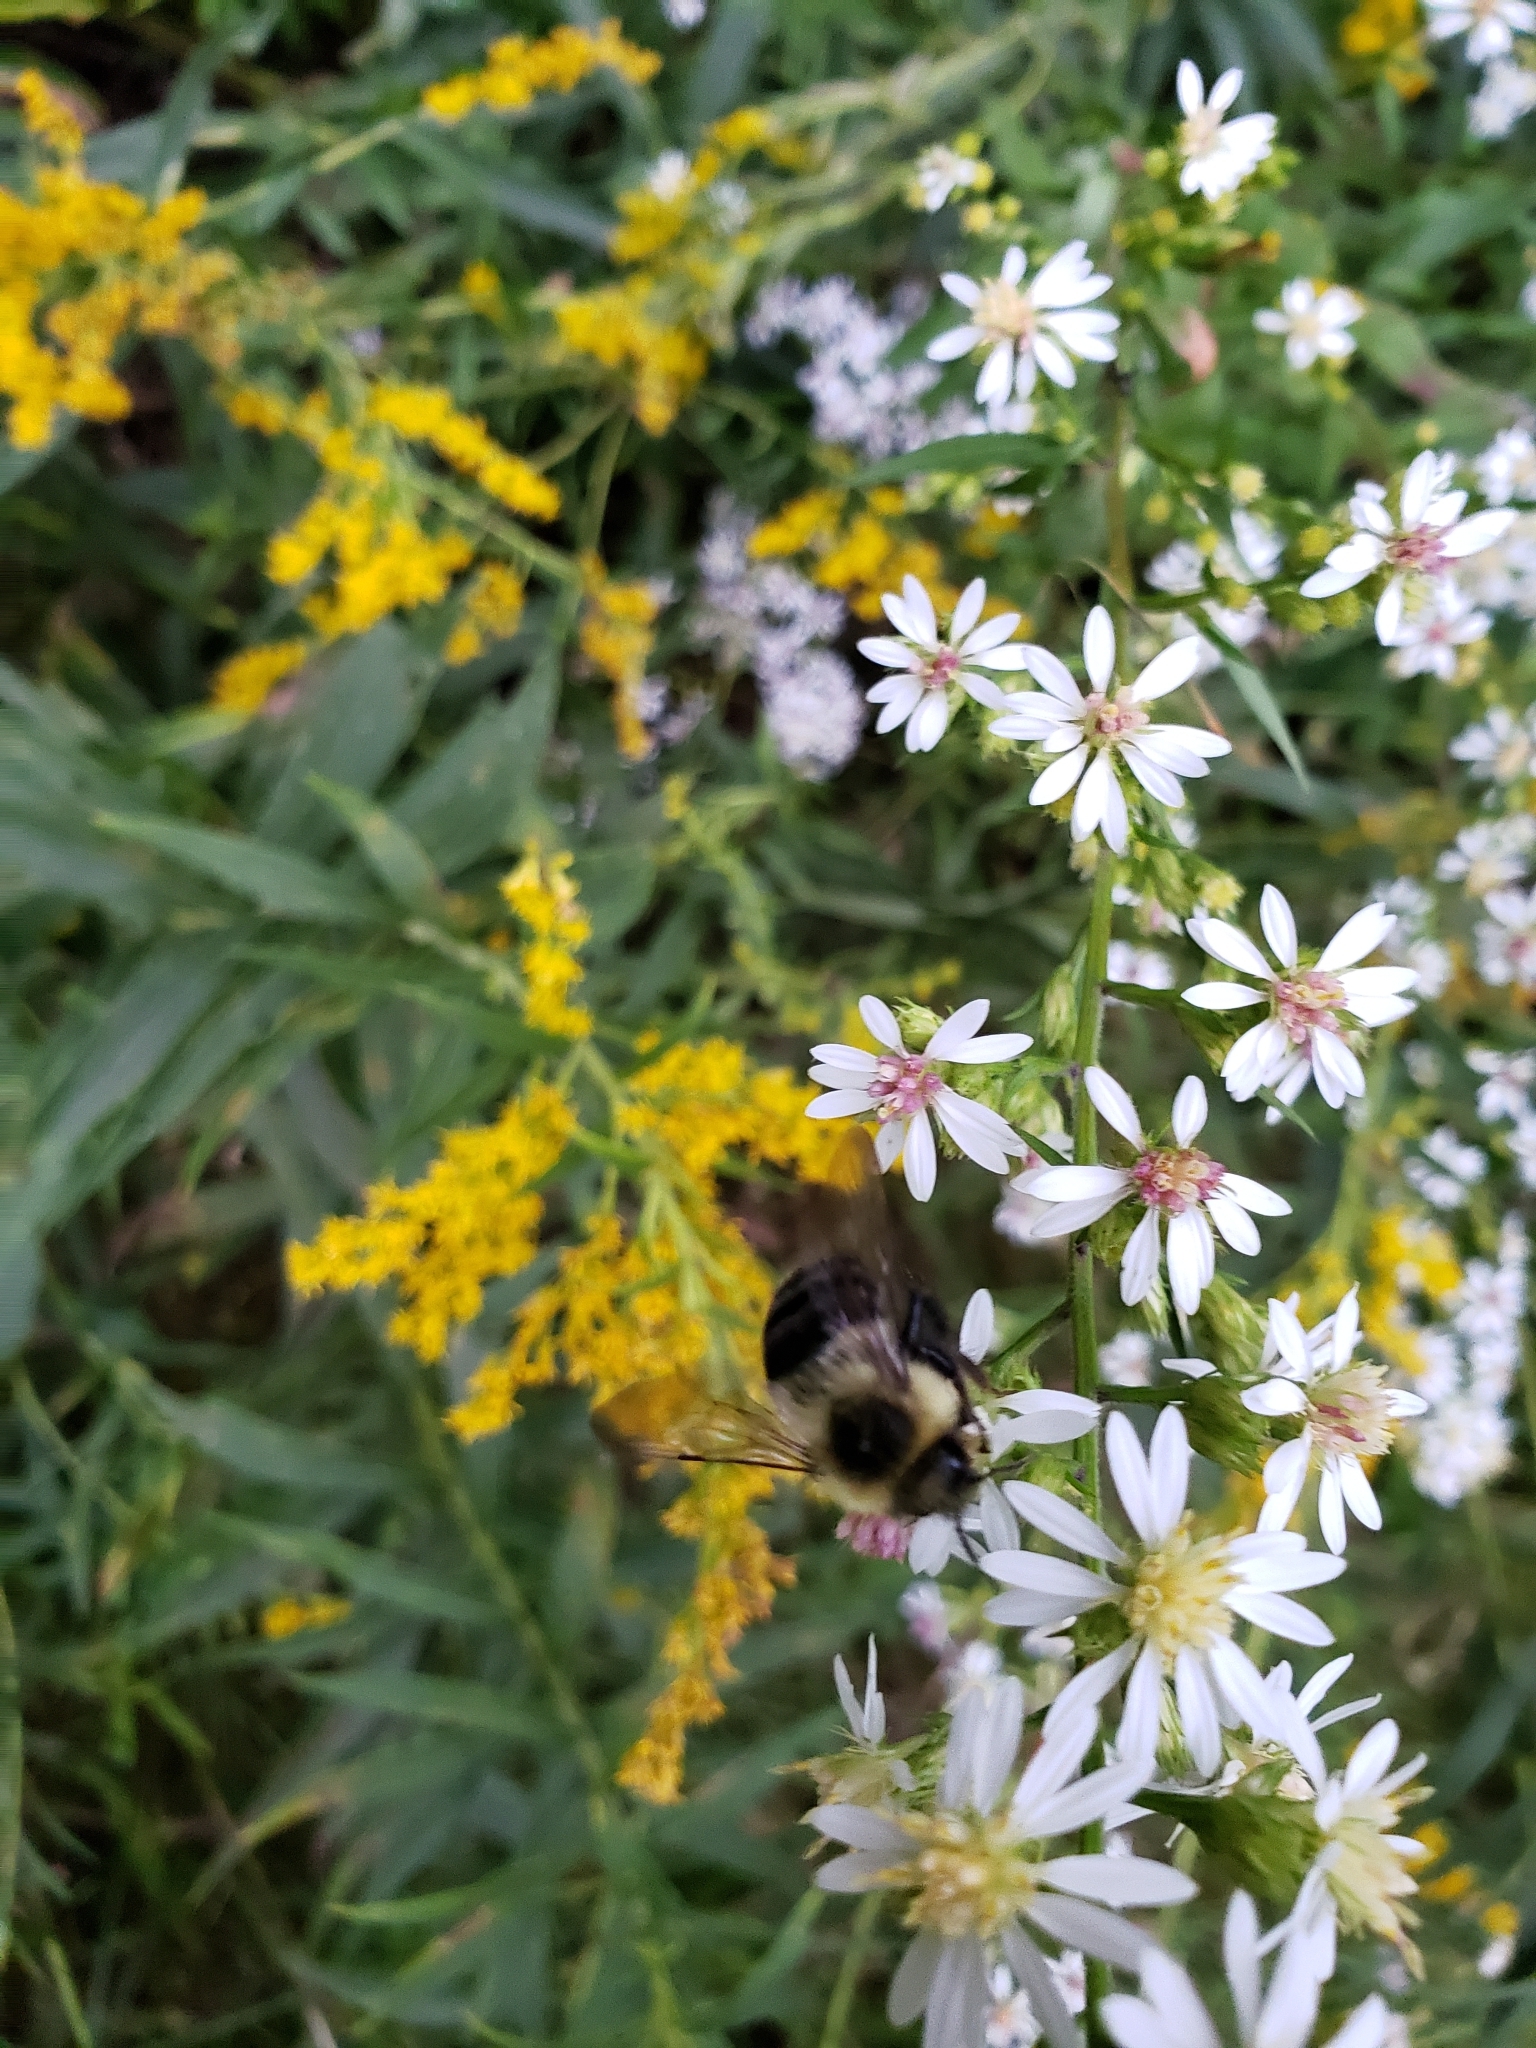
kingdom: Animalia
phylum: Arthropoda
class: Insecta
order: Hymenoptera
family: Apidae
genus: Bombus
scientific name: Bombus impatiens
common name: Common eastern bumble bee
